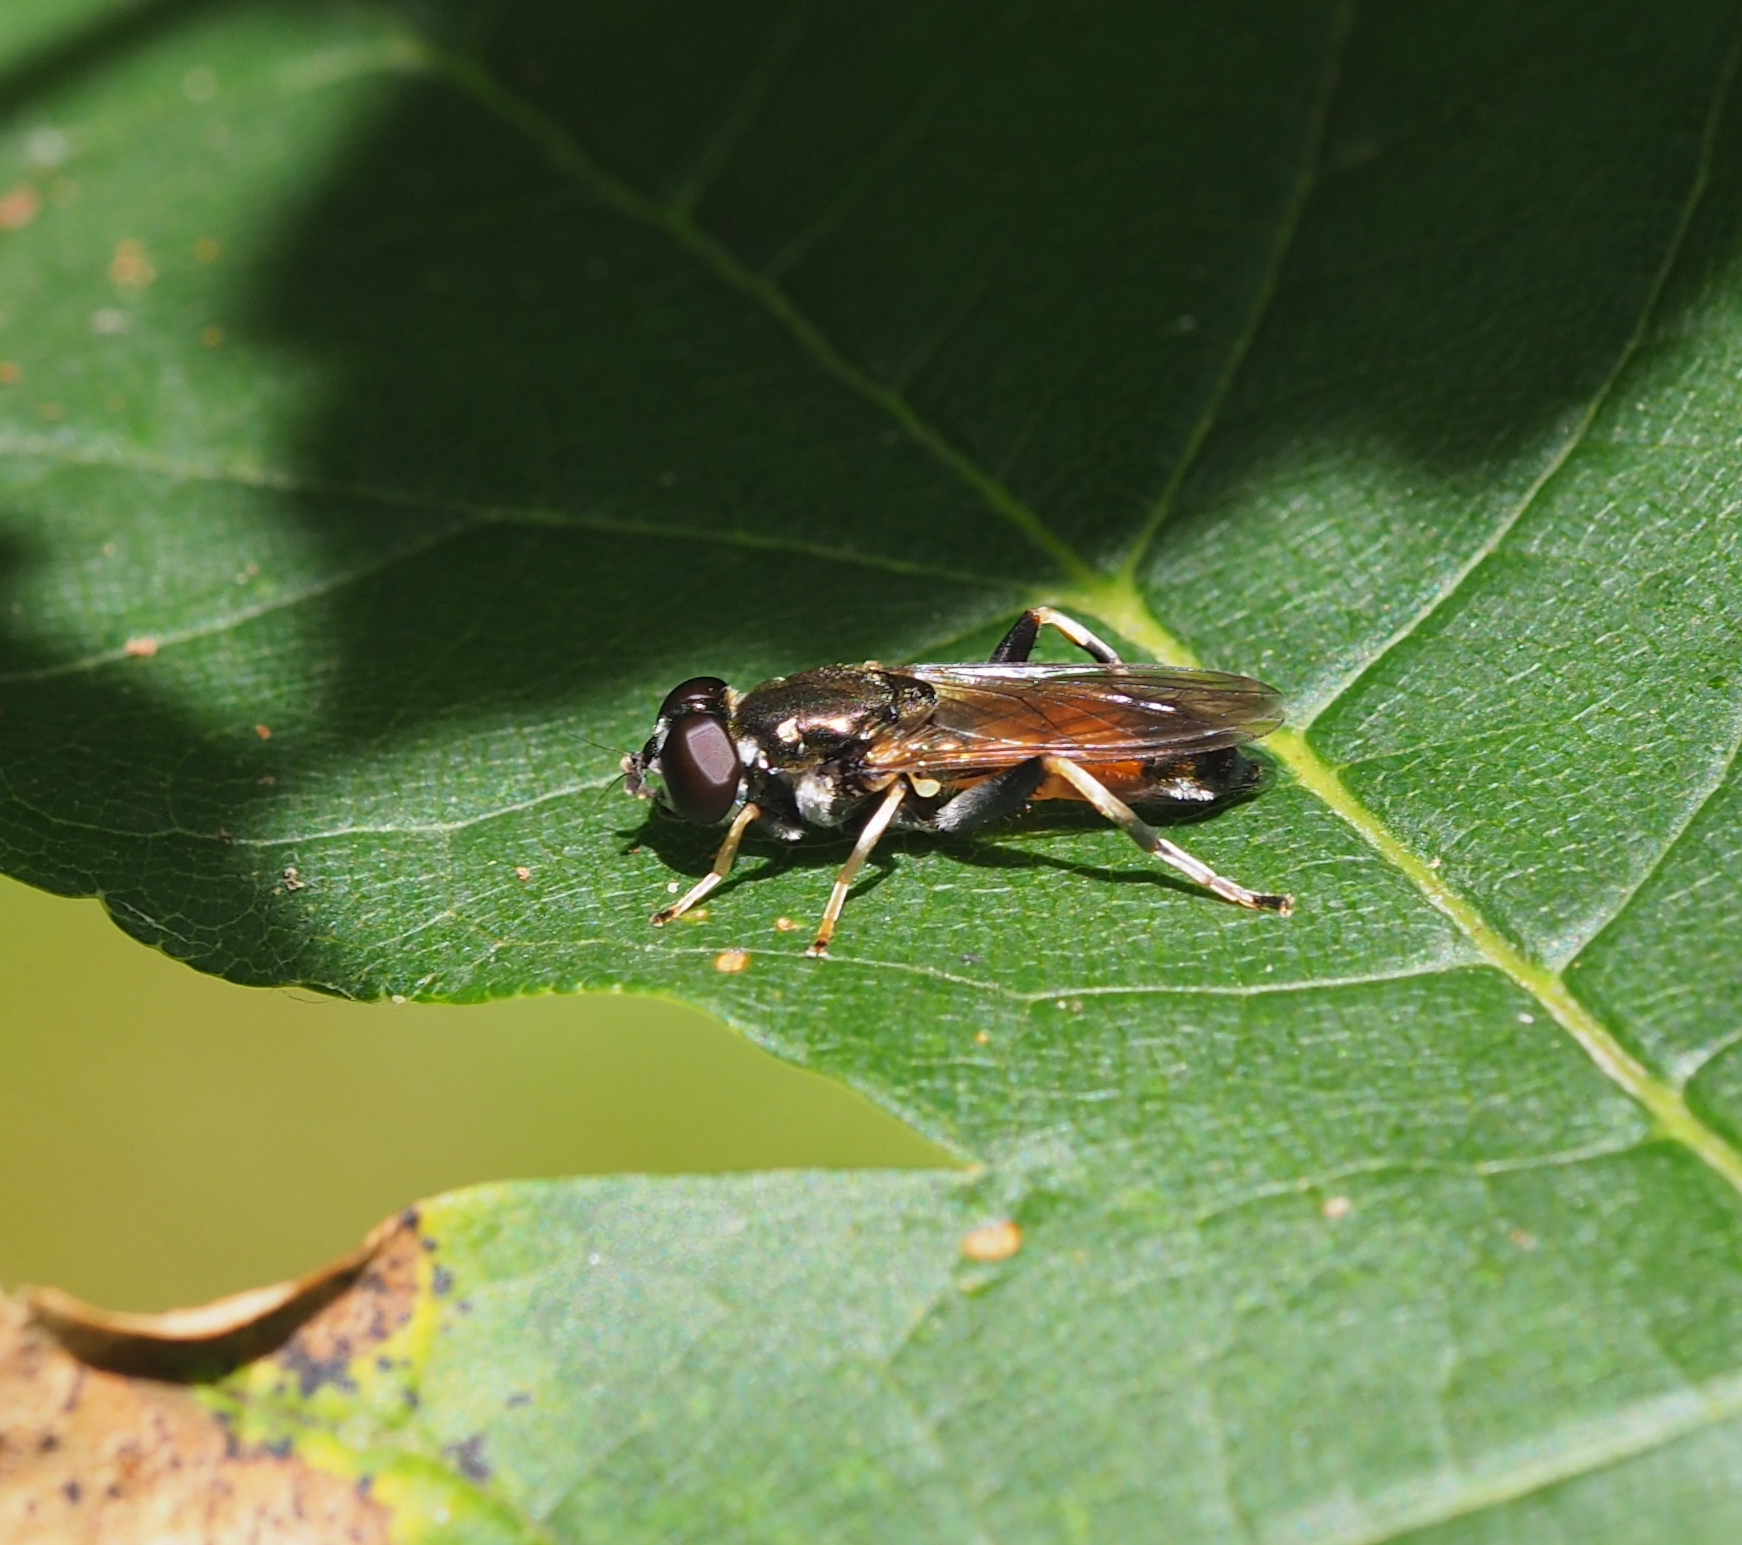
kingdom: Animalia
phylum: Arthropoda
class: Insecta
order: Diptera
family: Syrphidae
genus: Xylota
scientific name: Xylota segnis
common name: Brown-toed forest fly
